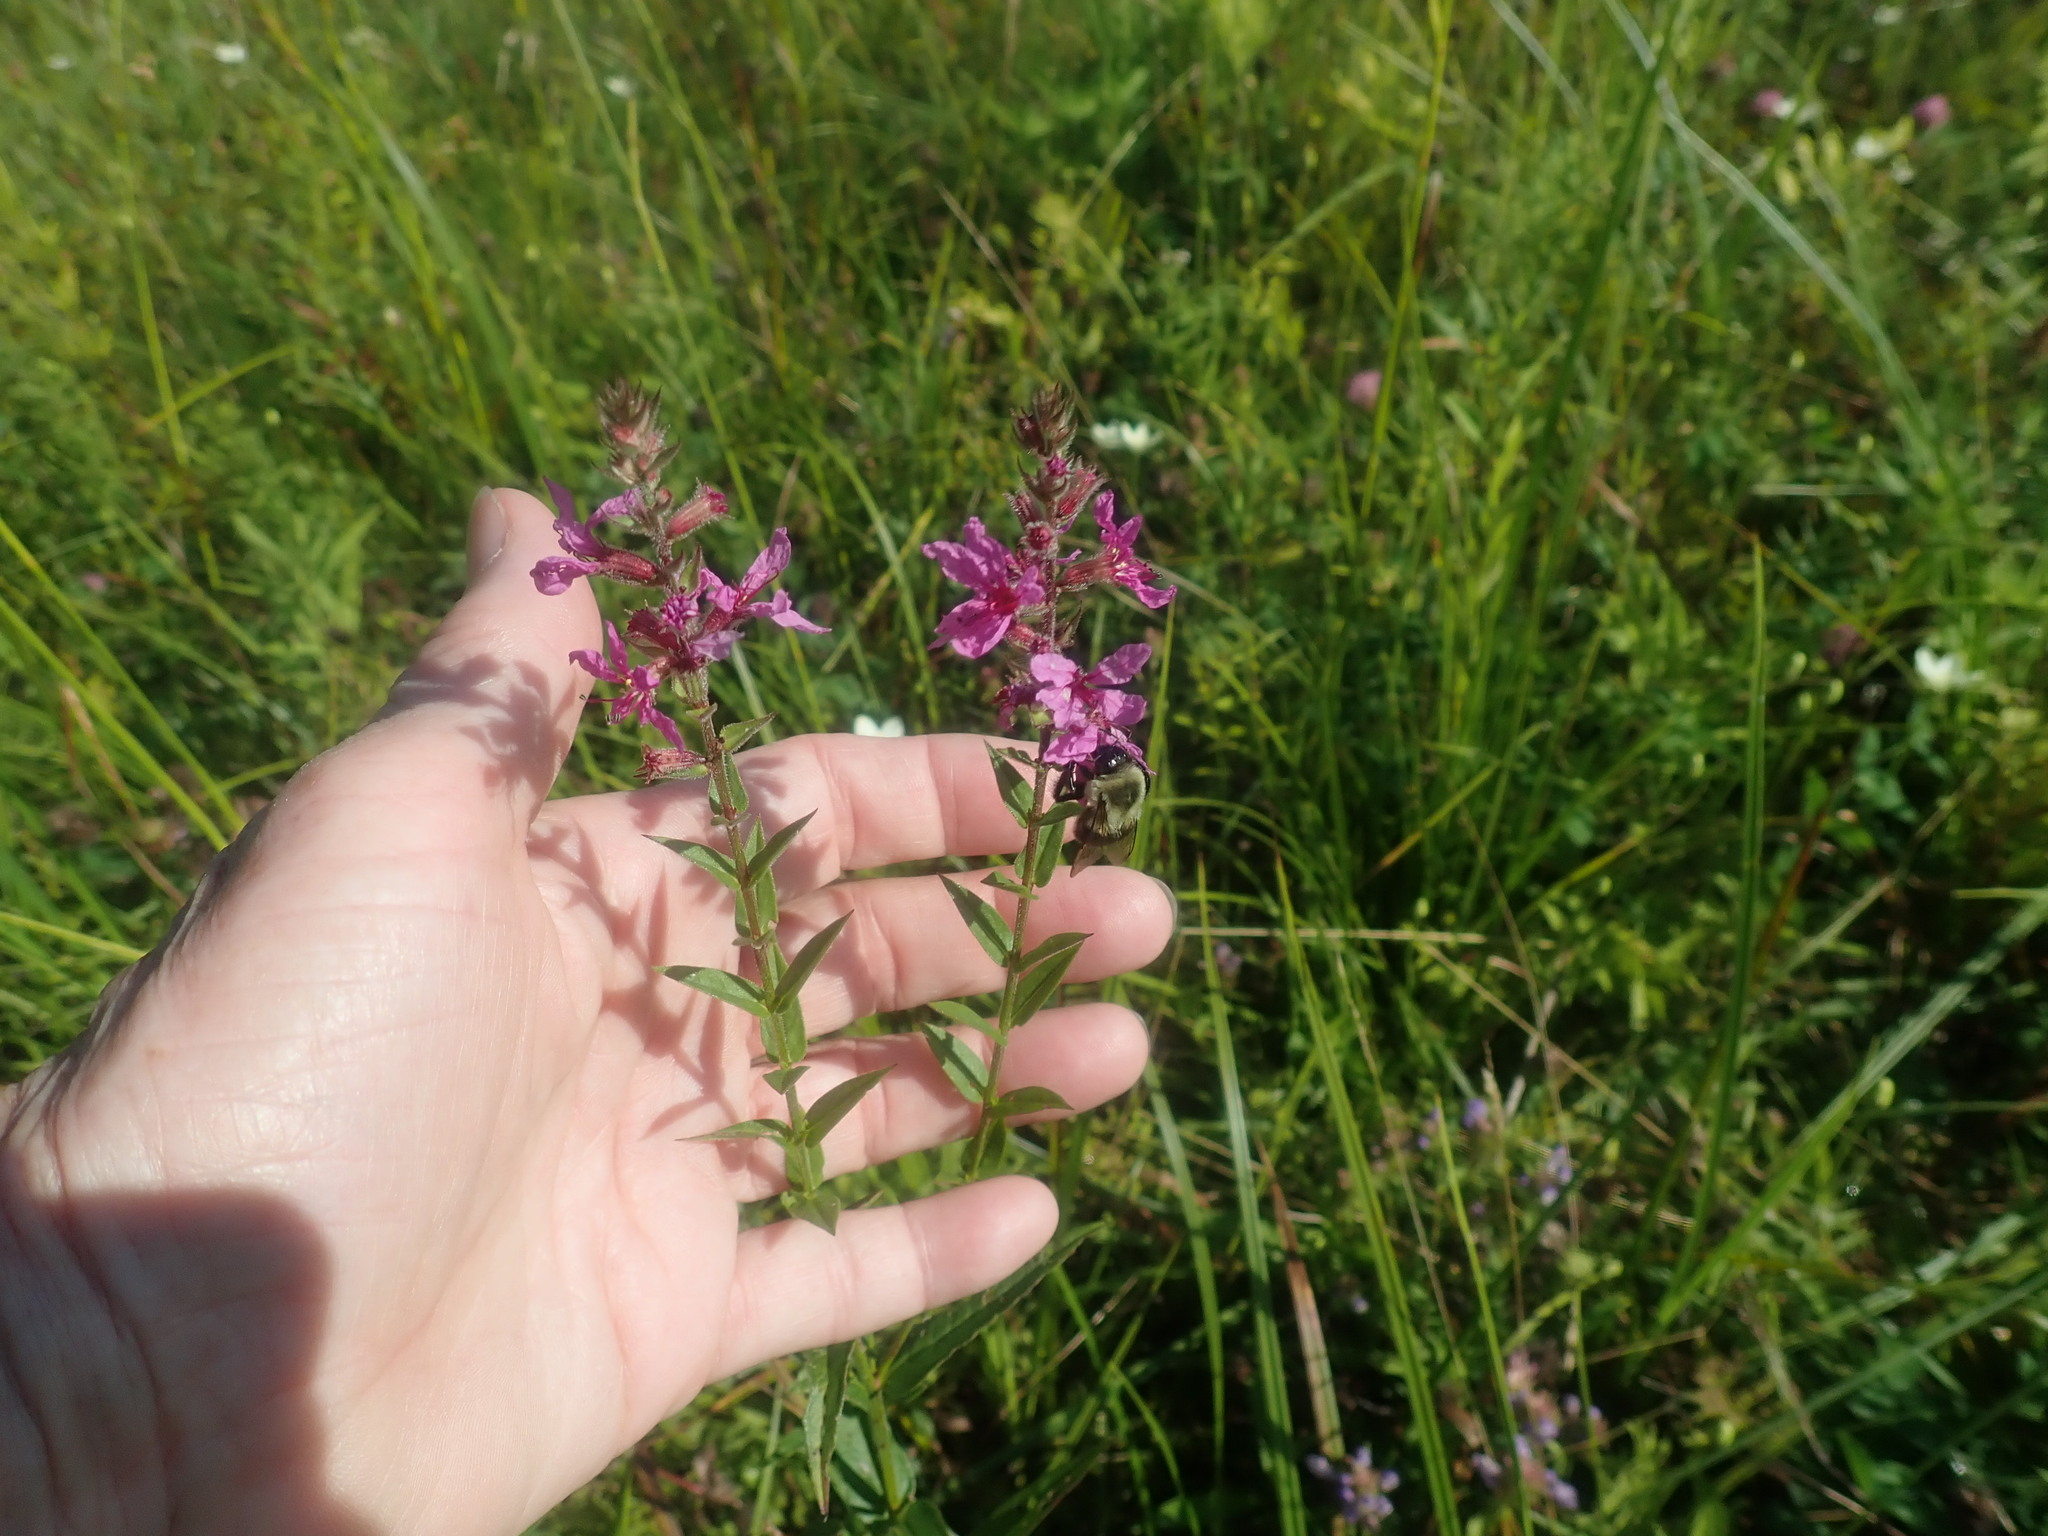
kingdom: Plantae
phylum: Tracheophyta
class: Magnoliopsida
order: Myrtales
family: Lythraceae
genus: Lythrum
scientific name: Lythrum salicaria
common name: Purple loosestrife
